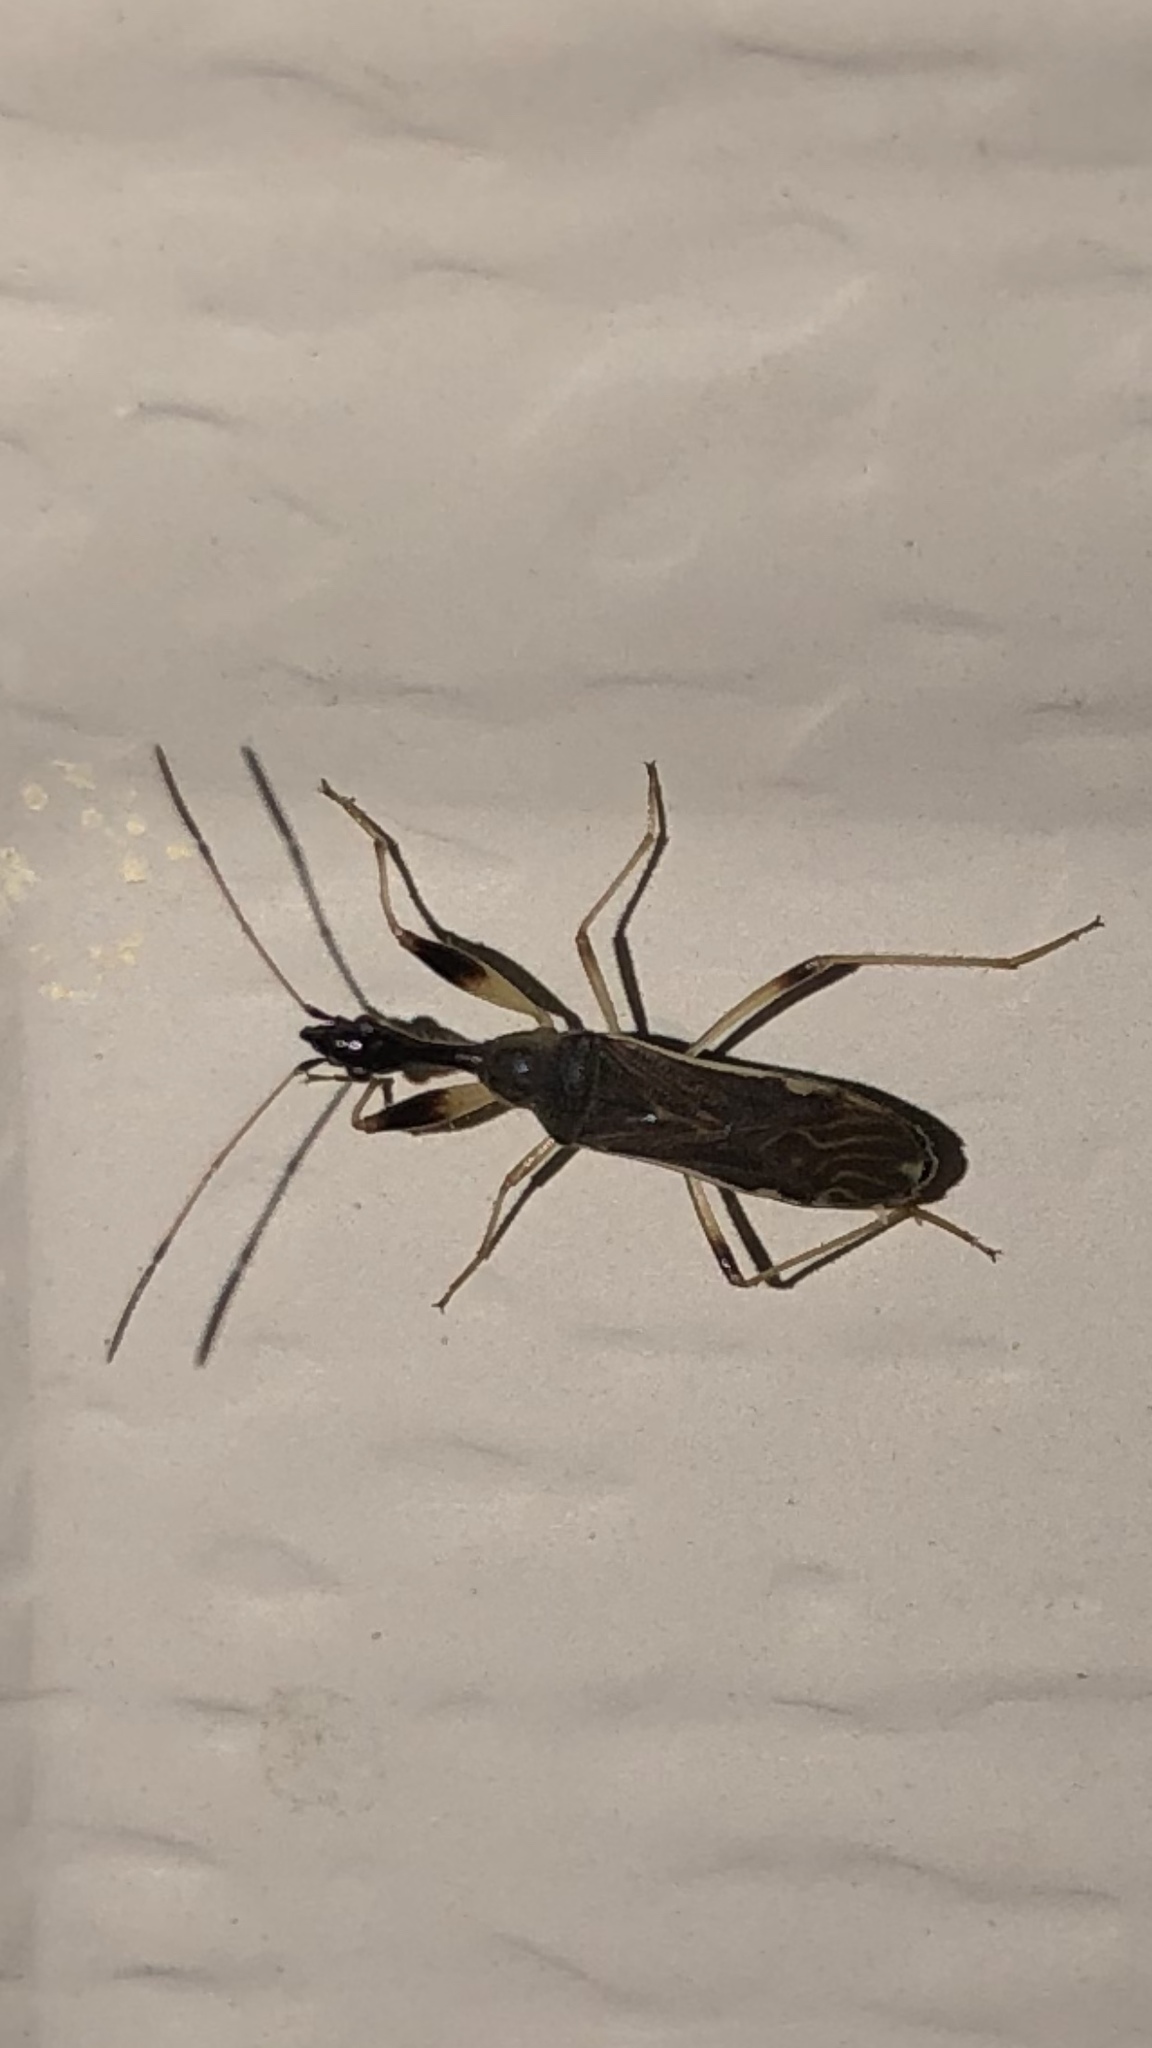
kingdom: Animalia
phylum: Arthropoda
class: Insecta
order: Hemiptera
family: Rhyparochromidae
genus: Myodocha
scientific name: Myodocha serripes
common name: Long-necked seed bug
